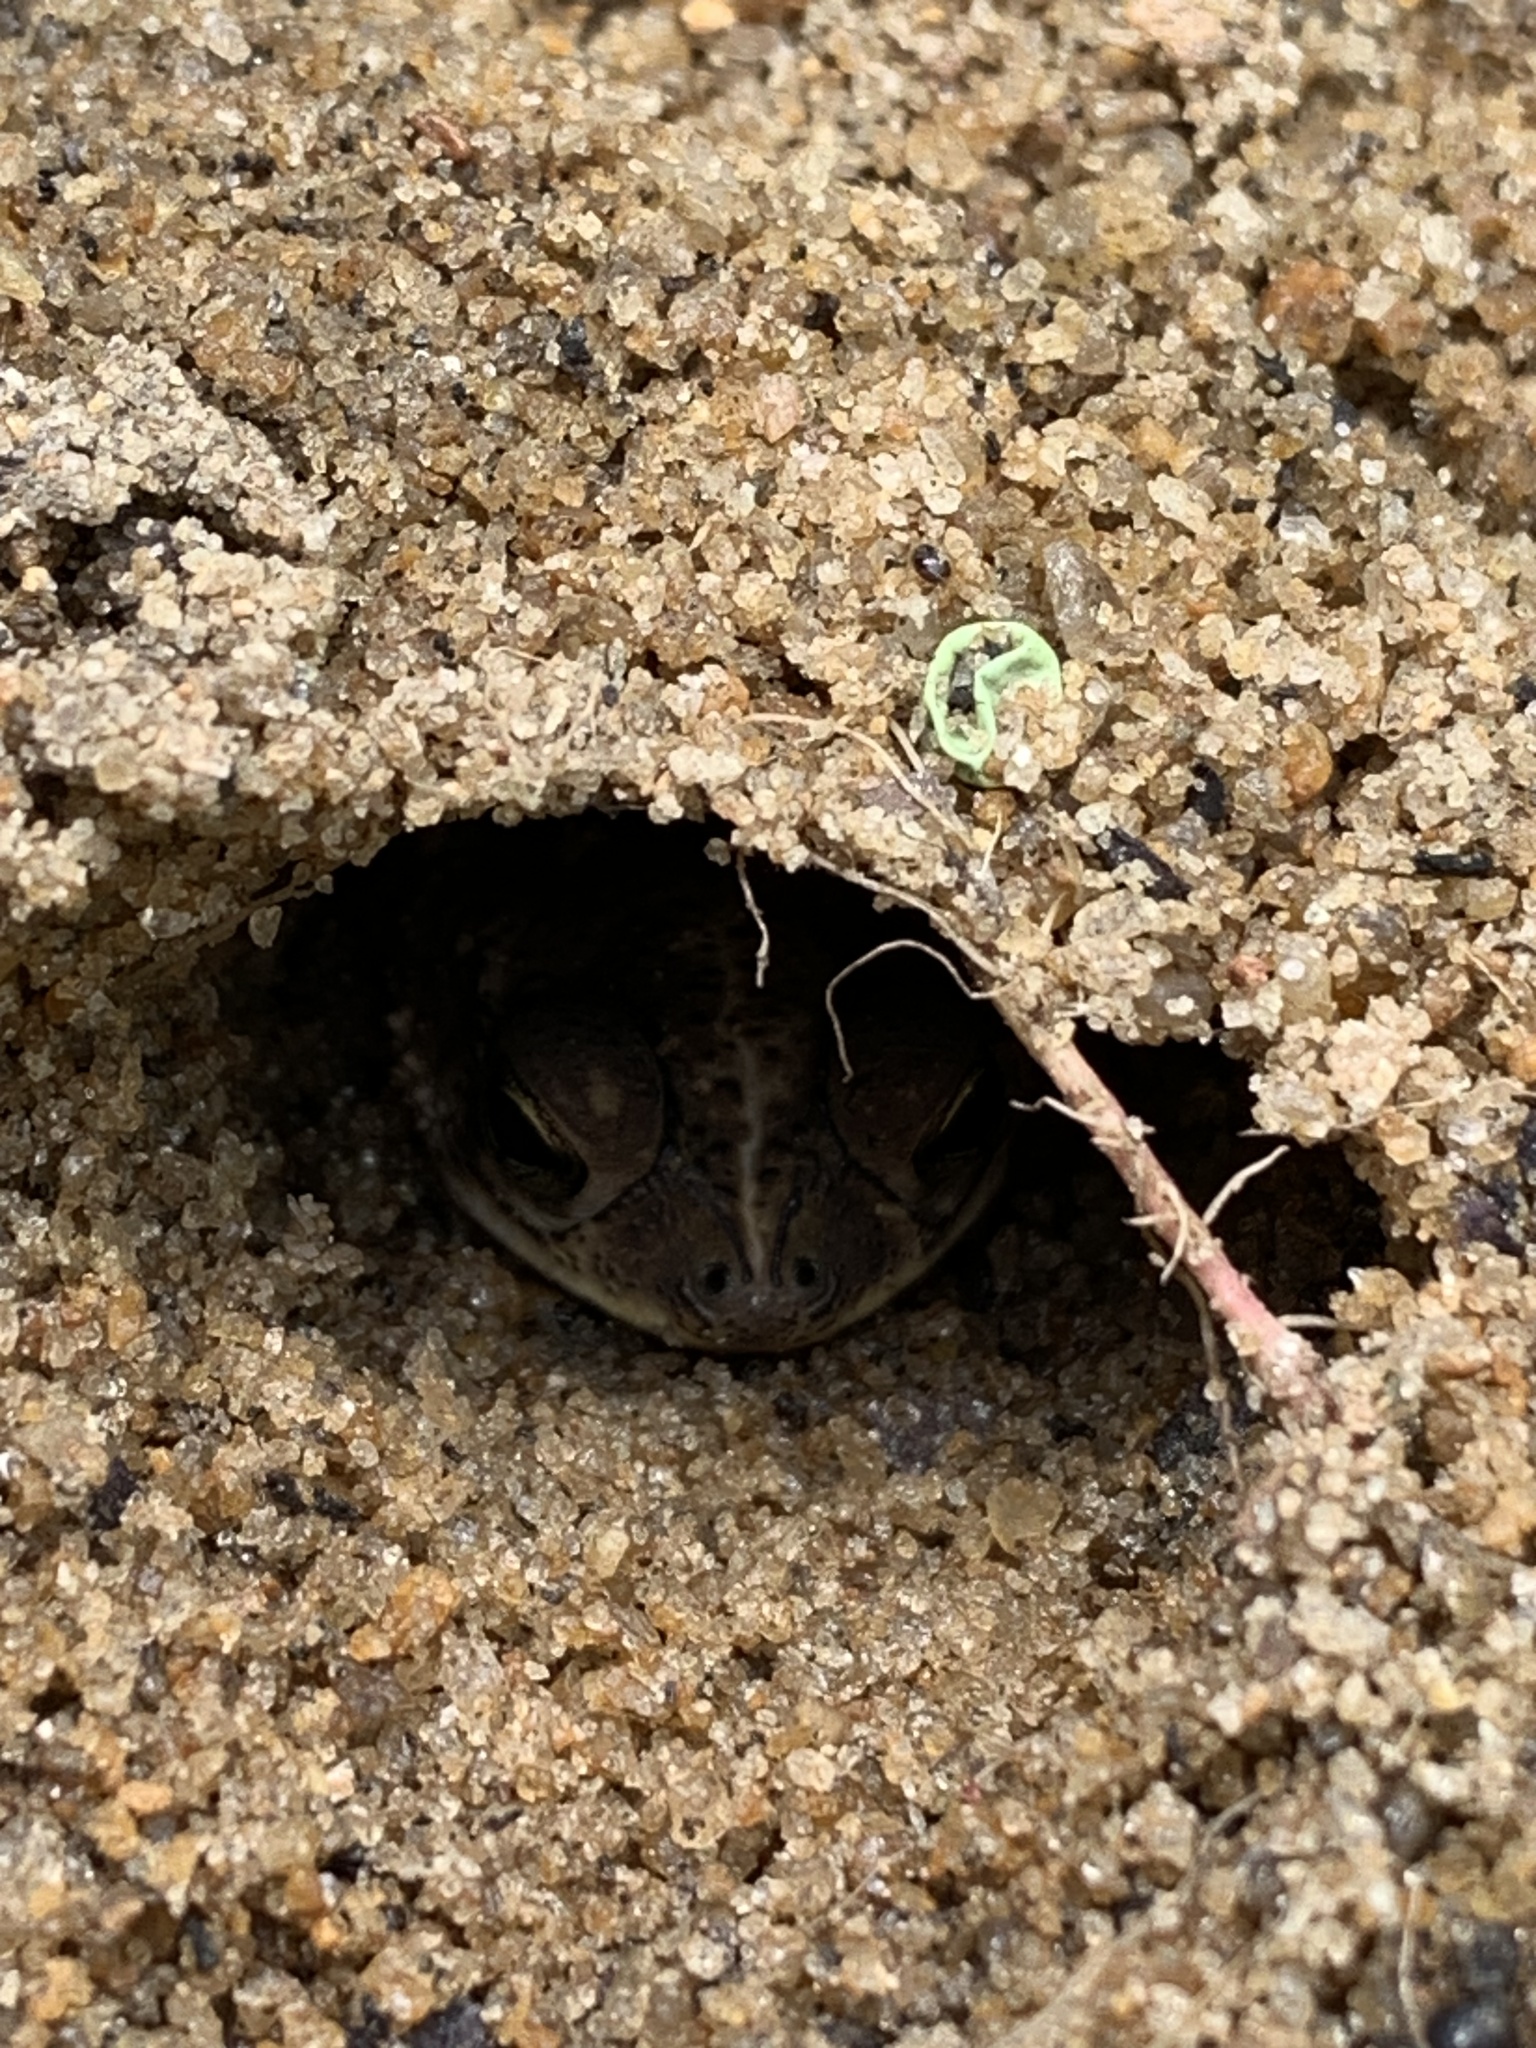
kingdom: Animalia
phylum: Chordata
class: Amphibia
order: Anura
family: Bufonidae
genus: Rhinella
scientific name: Rhinella pygmaea
